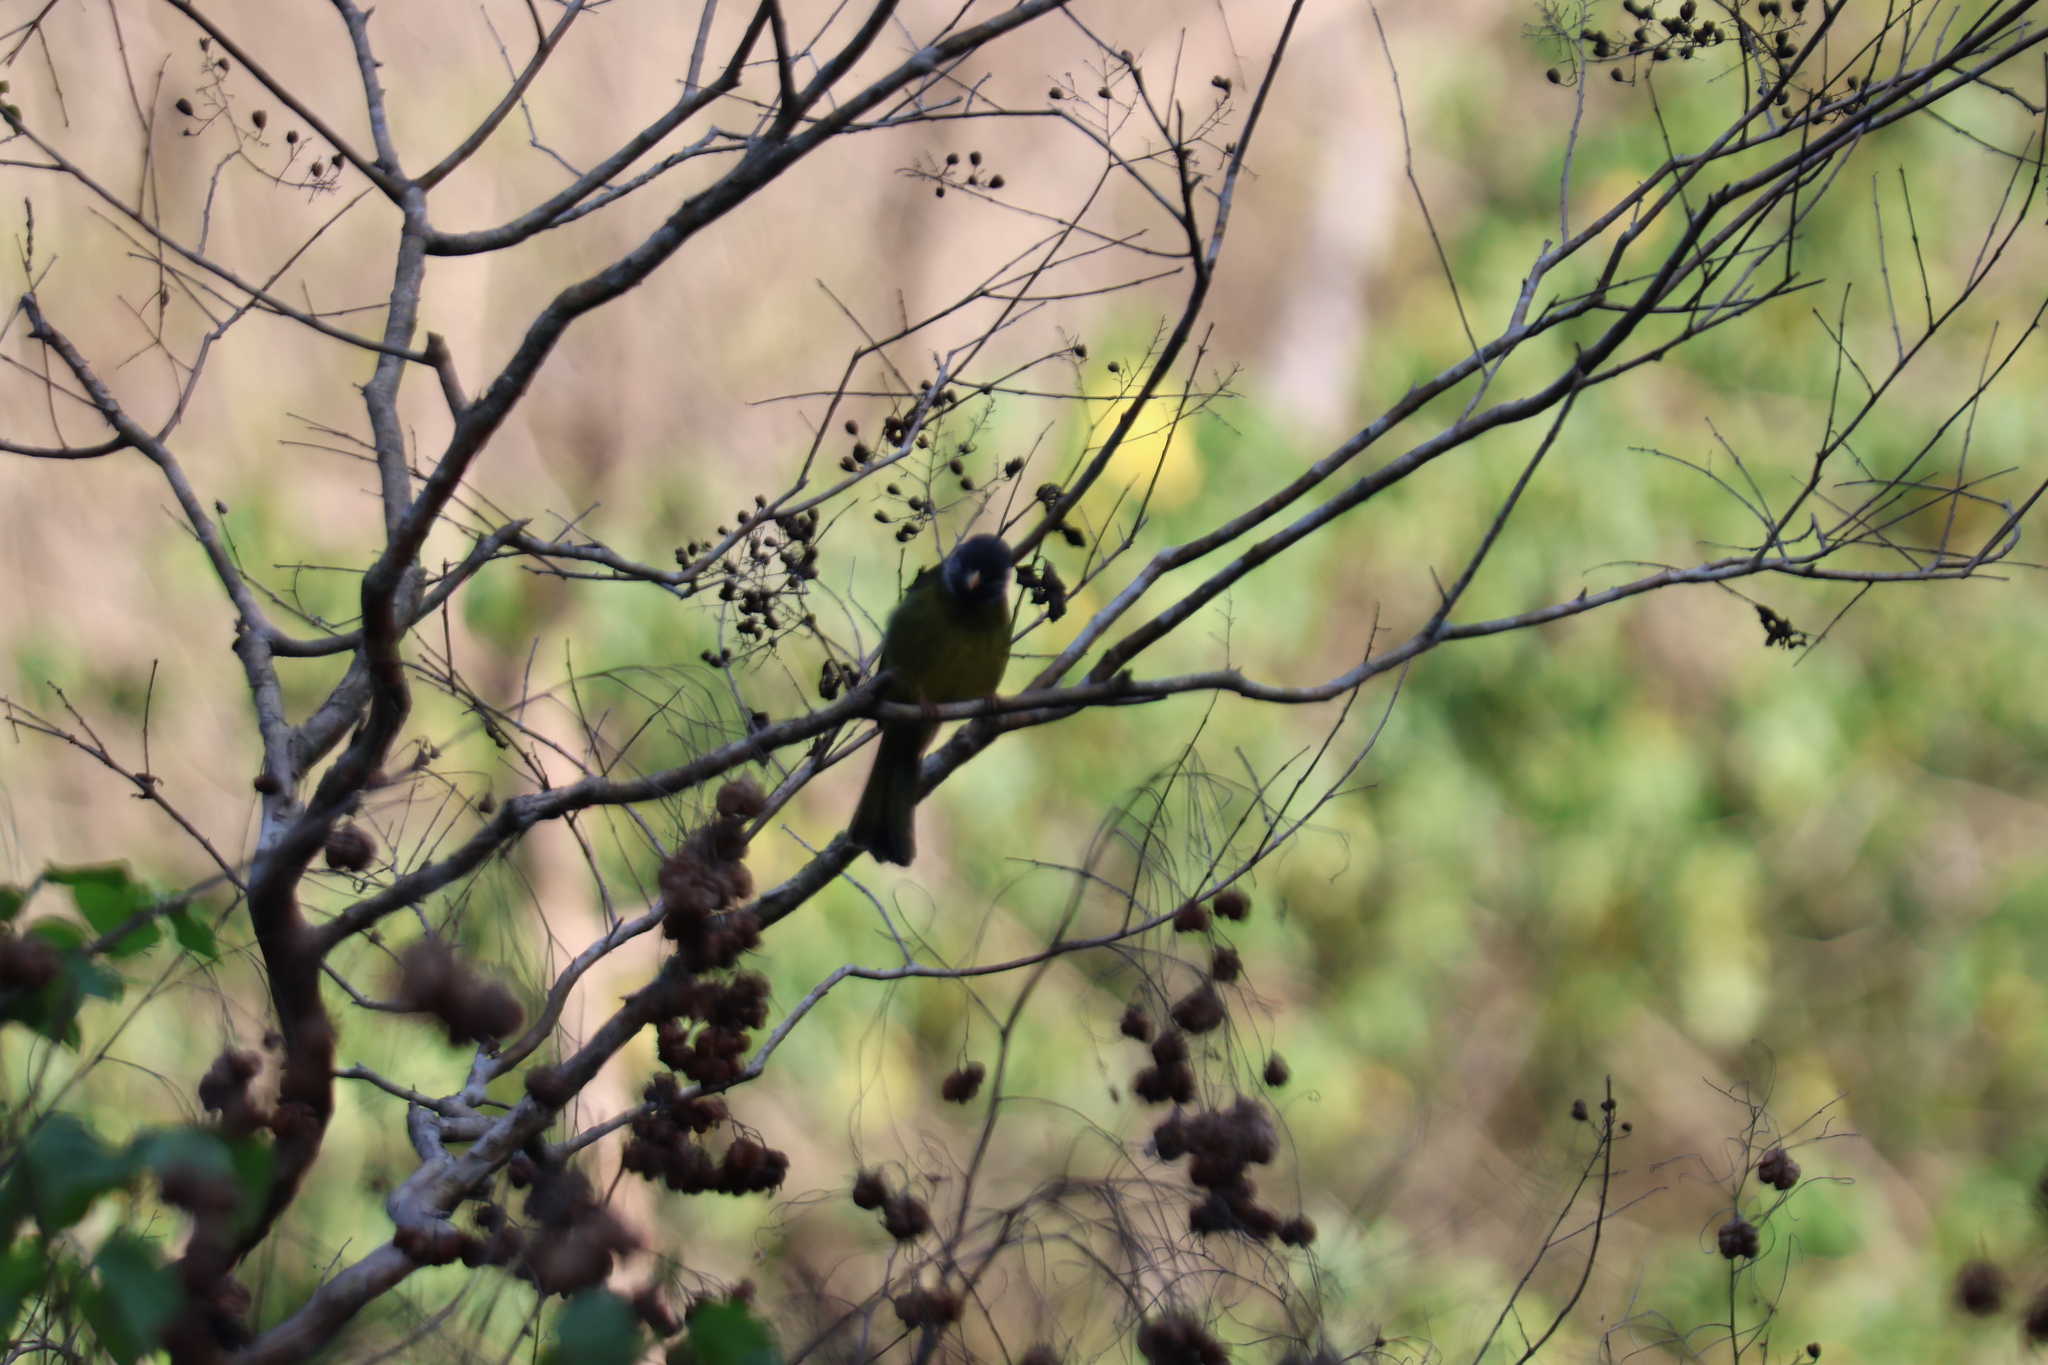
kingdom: Animalia
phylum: Chordata
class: Aves
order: Passeriformes
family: Pycnonotidae
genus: Spizixos
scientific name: Spizixos semitorques
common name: Collared finchbill
